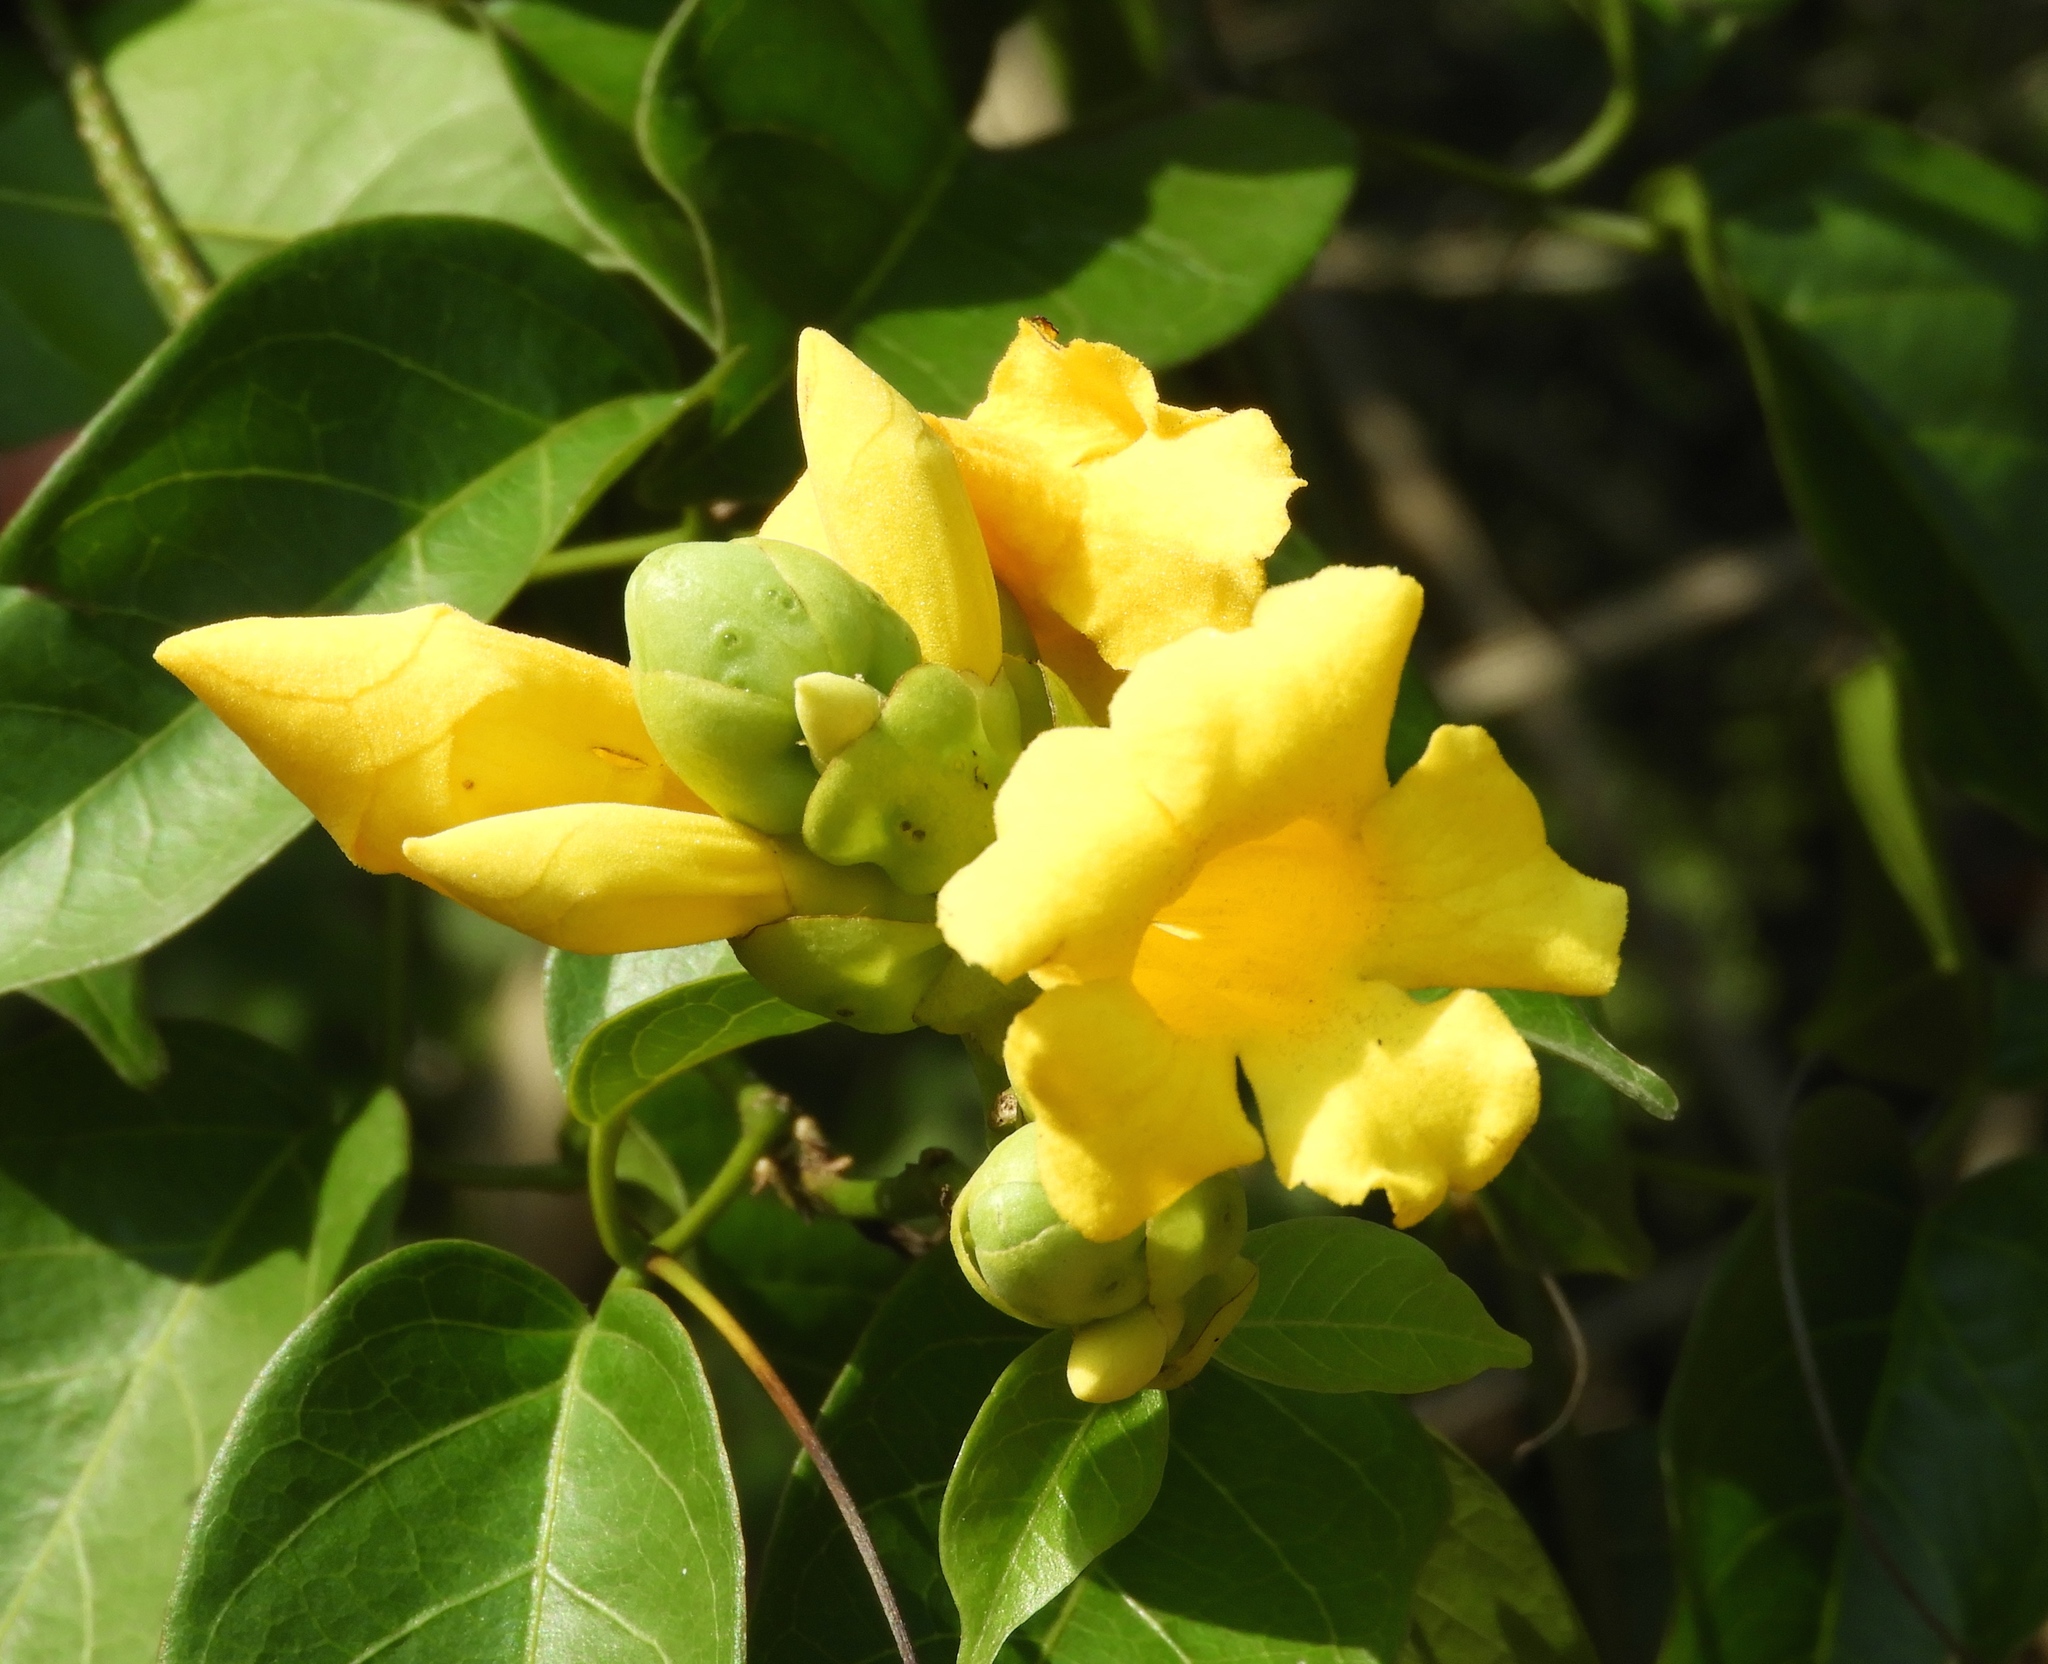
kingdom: Plantae
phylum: Tracheophyta
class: Magnoliopsida
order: Lamiales
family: Bignoniaceae
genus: Adenocalymma
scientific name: Adenocalymma inundatum
